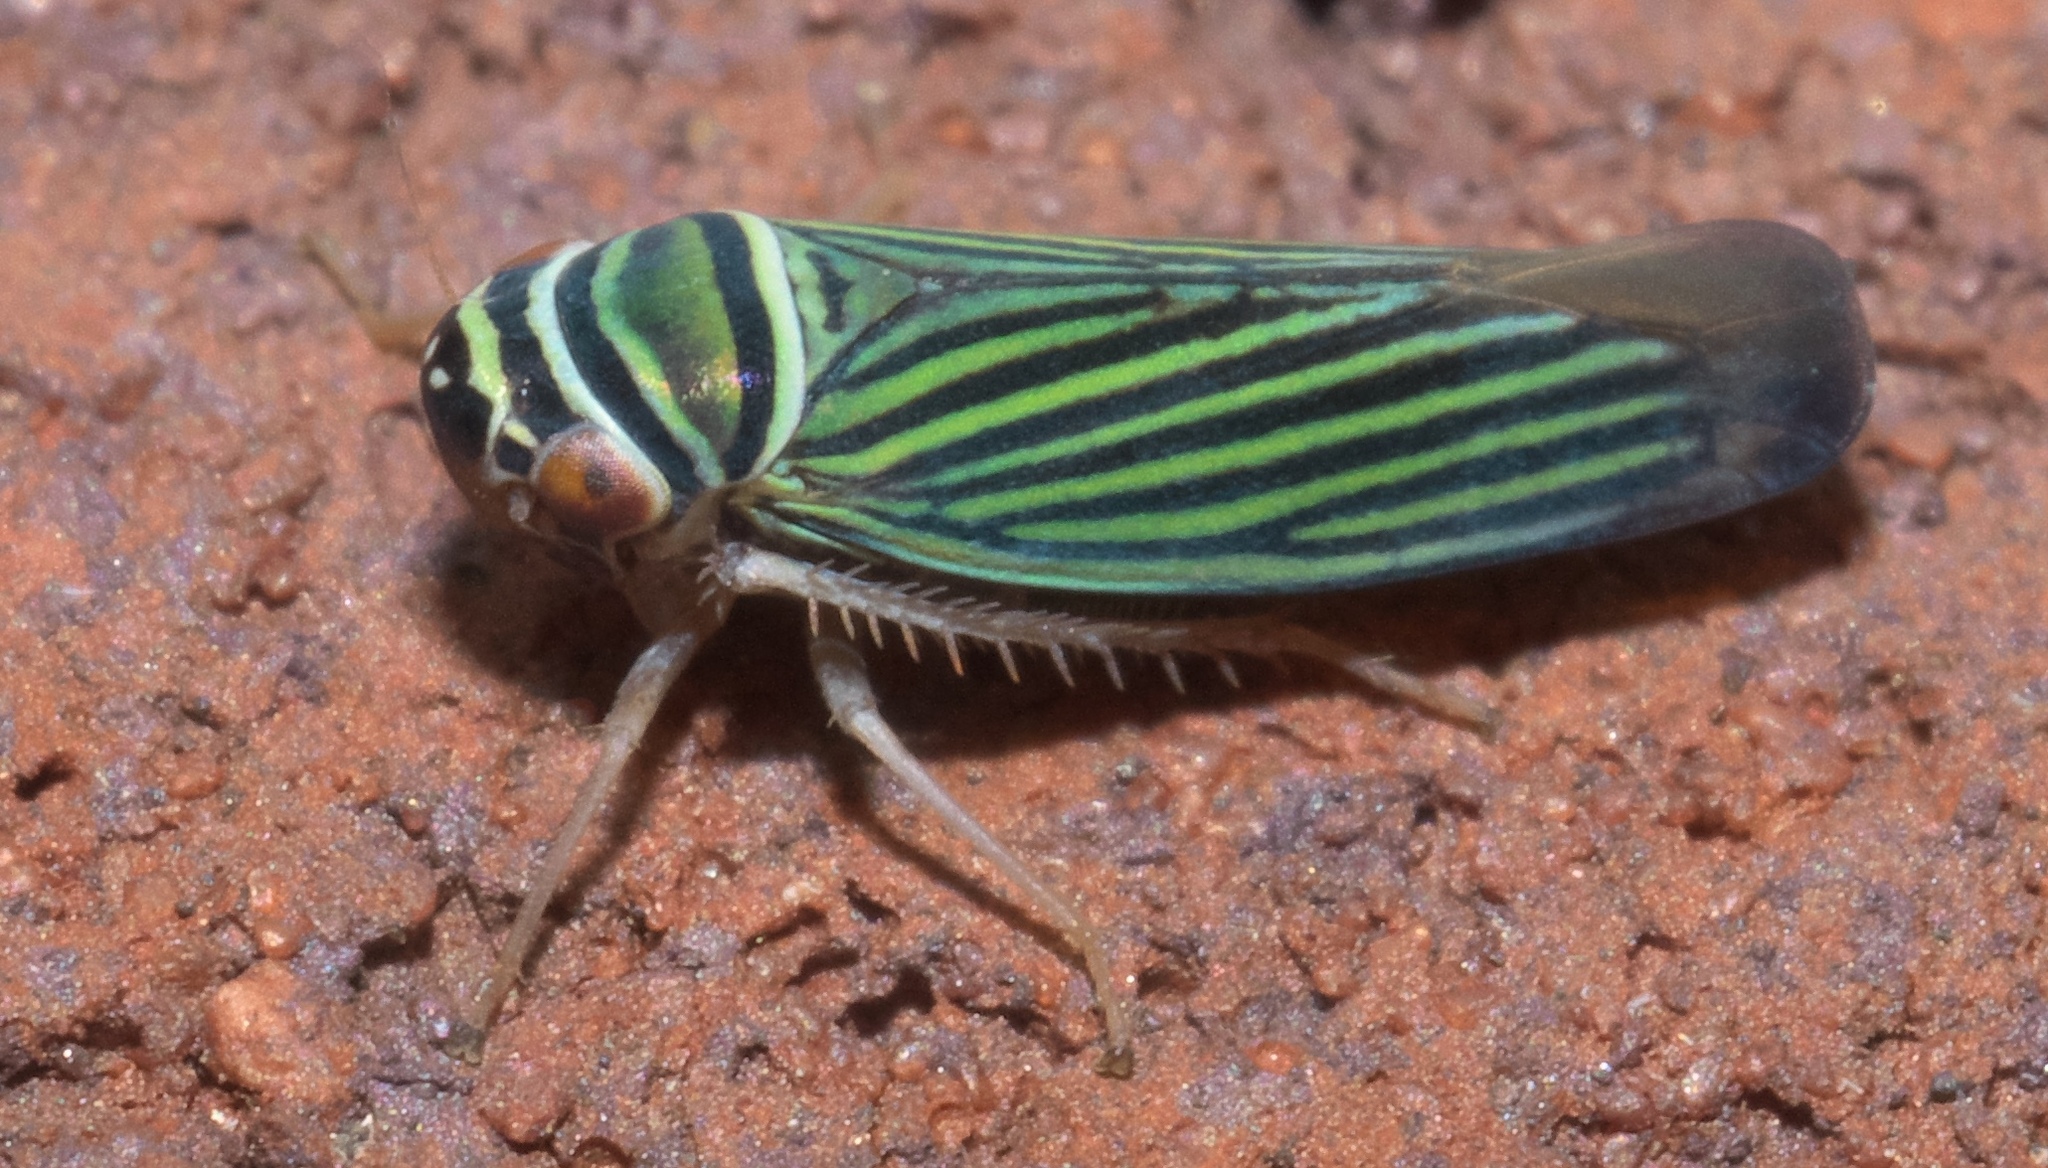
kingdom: Animalia
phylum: Arthropoda
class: Insecta
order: Hemiptera
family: Cicadellidae
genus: Tylozygus
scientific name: Tylozygus bifidus
